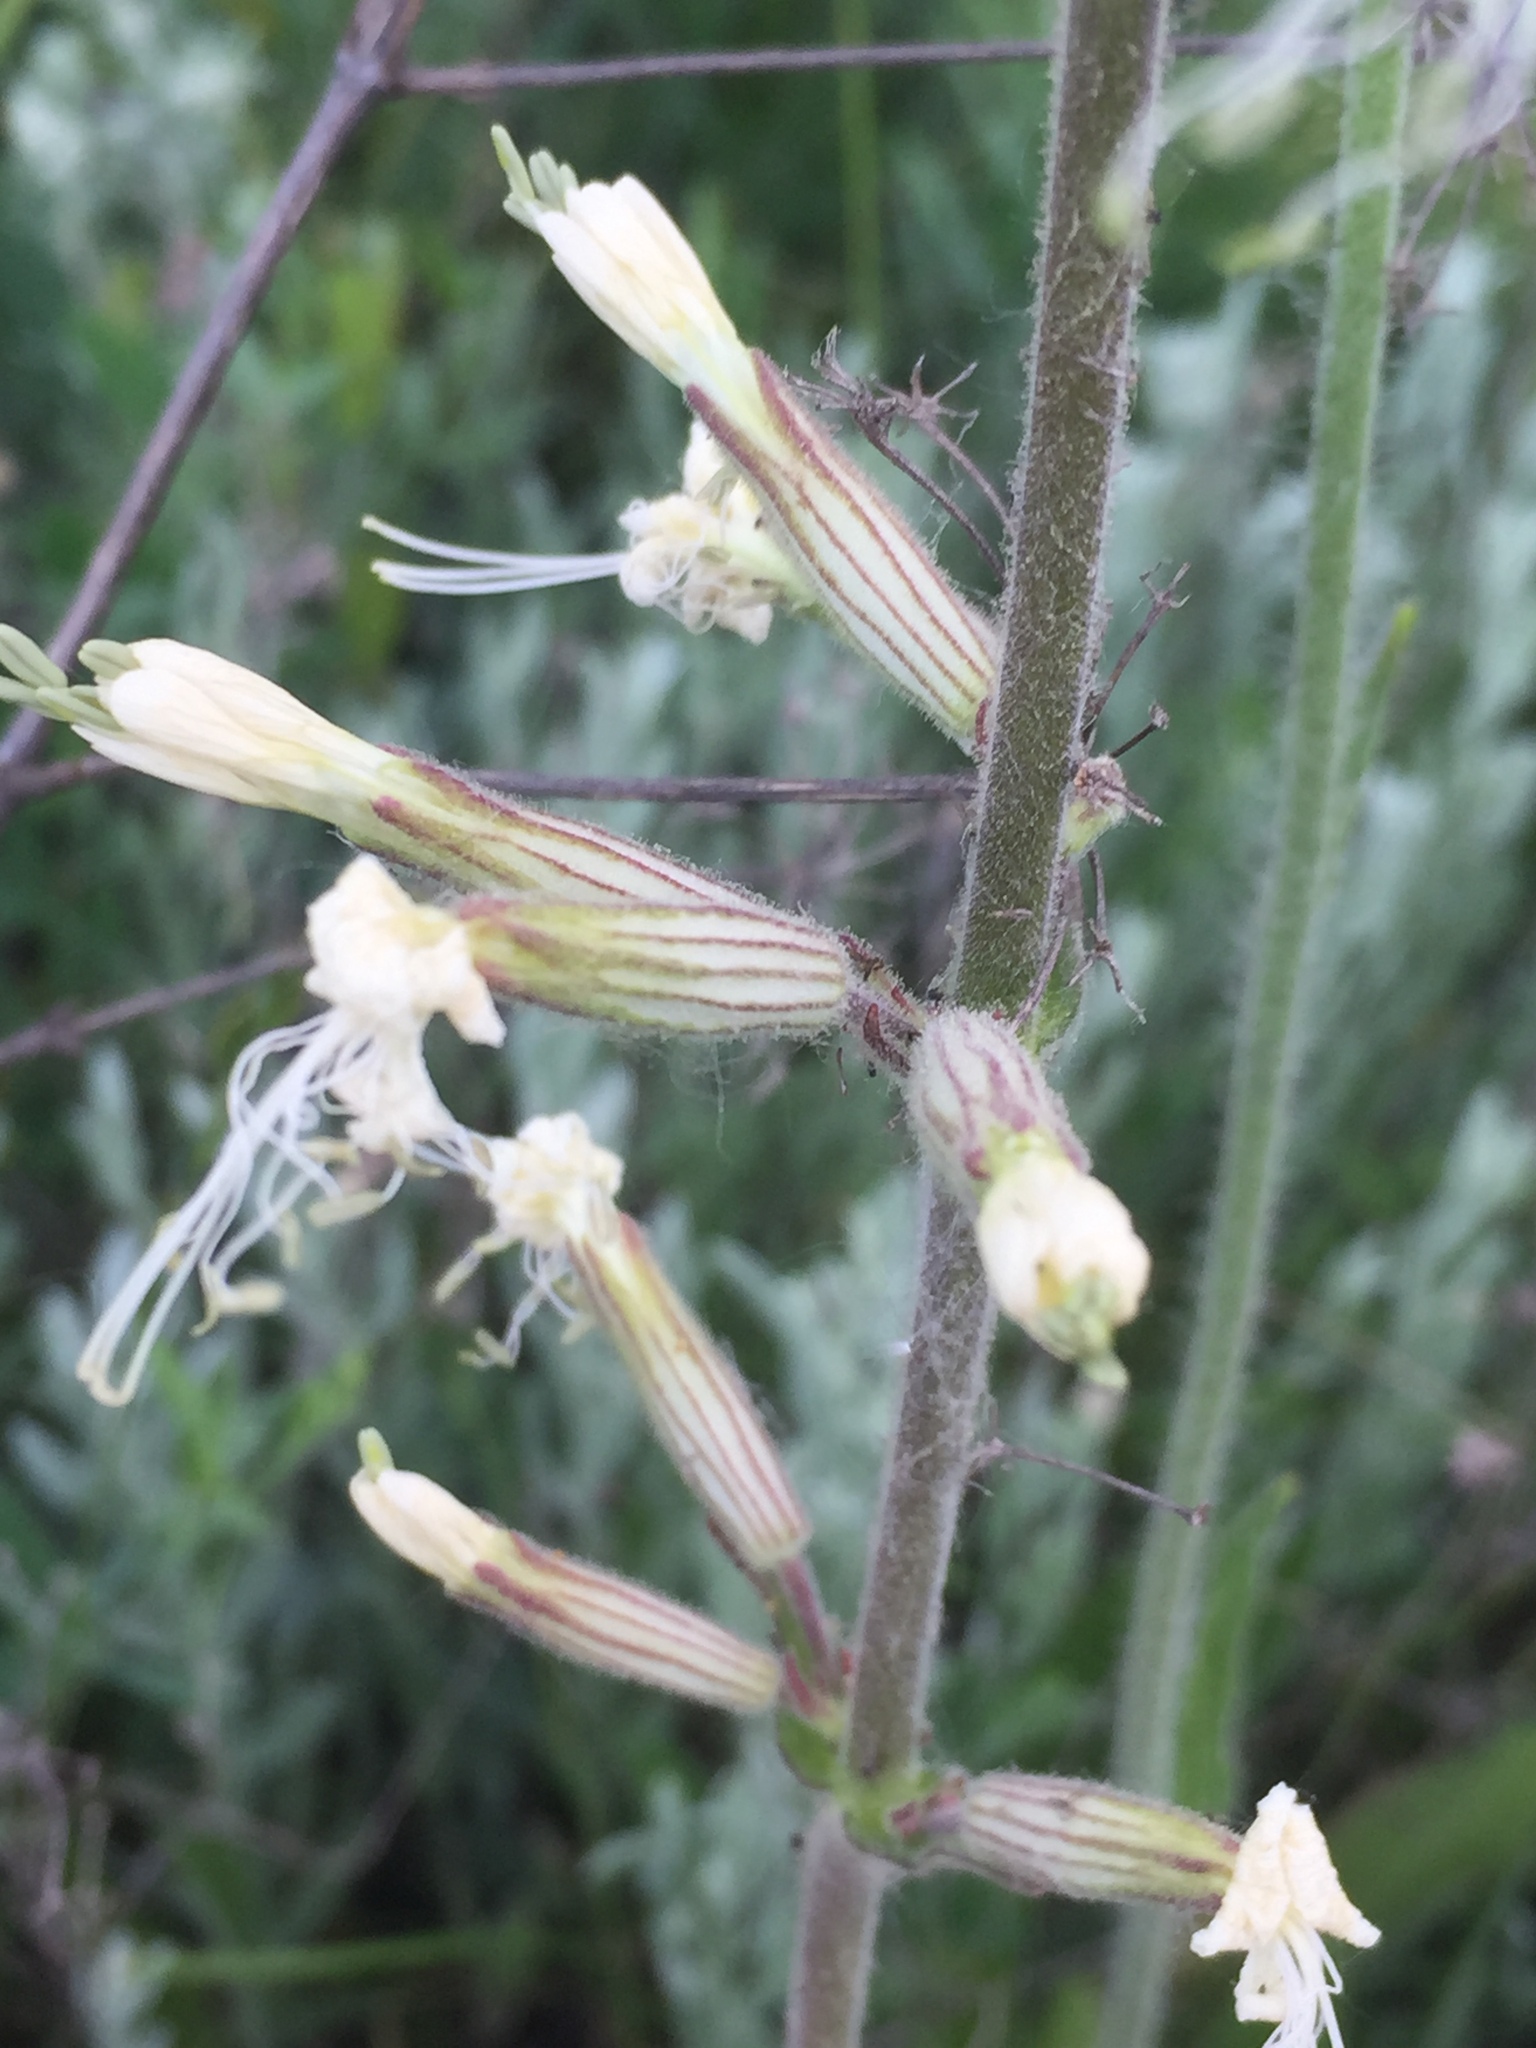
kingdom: Plantae
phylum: Tracheophyta
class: Magnoliopsida
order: Caryophyllales
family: Caryophyllaceae
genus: Silene
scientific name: Silene viscosa
